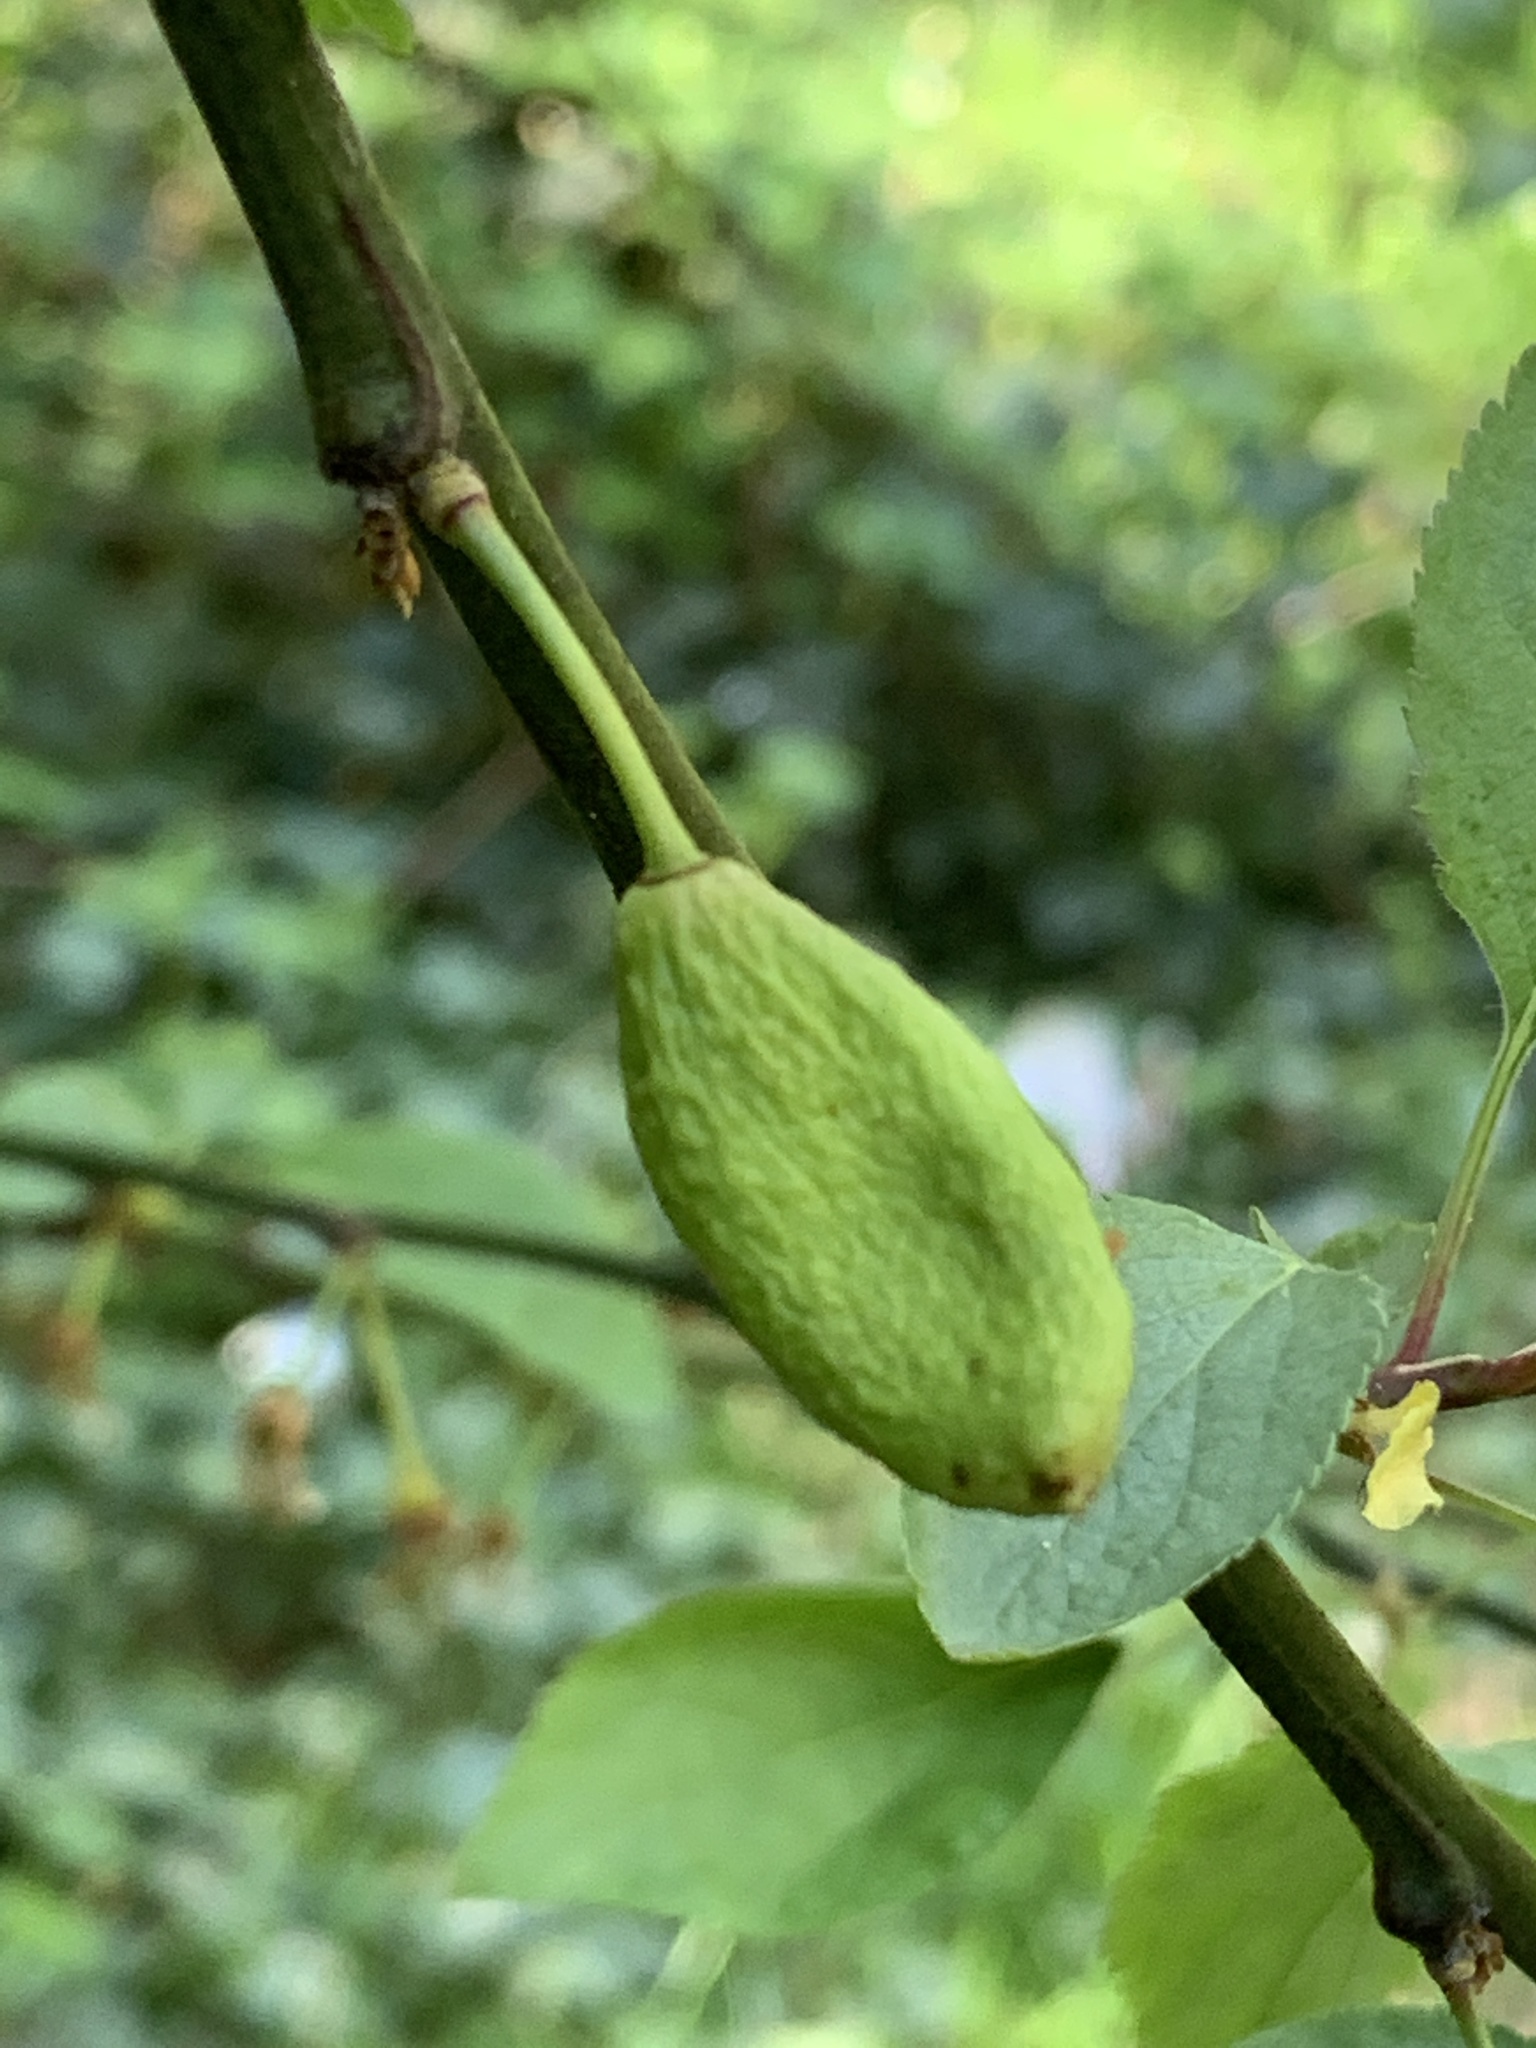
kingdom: Fungi
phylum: Ascomycota
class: Taphrinomycetes
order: Taphrinales
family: Taphrinaceae
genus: Taphrina
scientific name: Taphrina pruni
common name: Pocket plum
